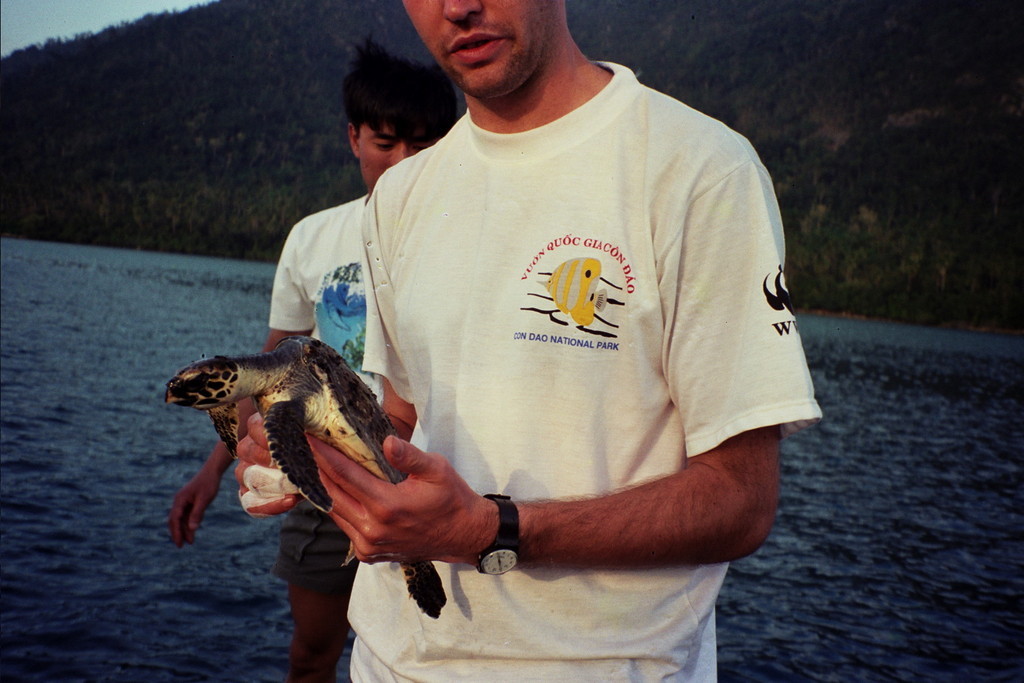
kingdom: Animalia
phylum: Chordata
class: Testudines
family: Cheloniidae
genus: Eretmochelys
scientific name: Eretmochelys imbricata
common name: Hawksbill turtle
